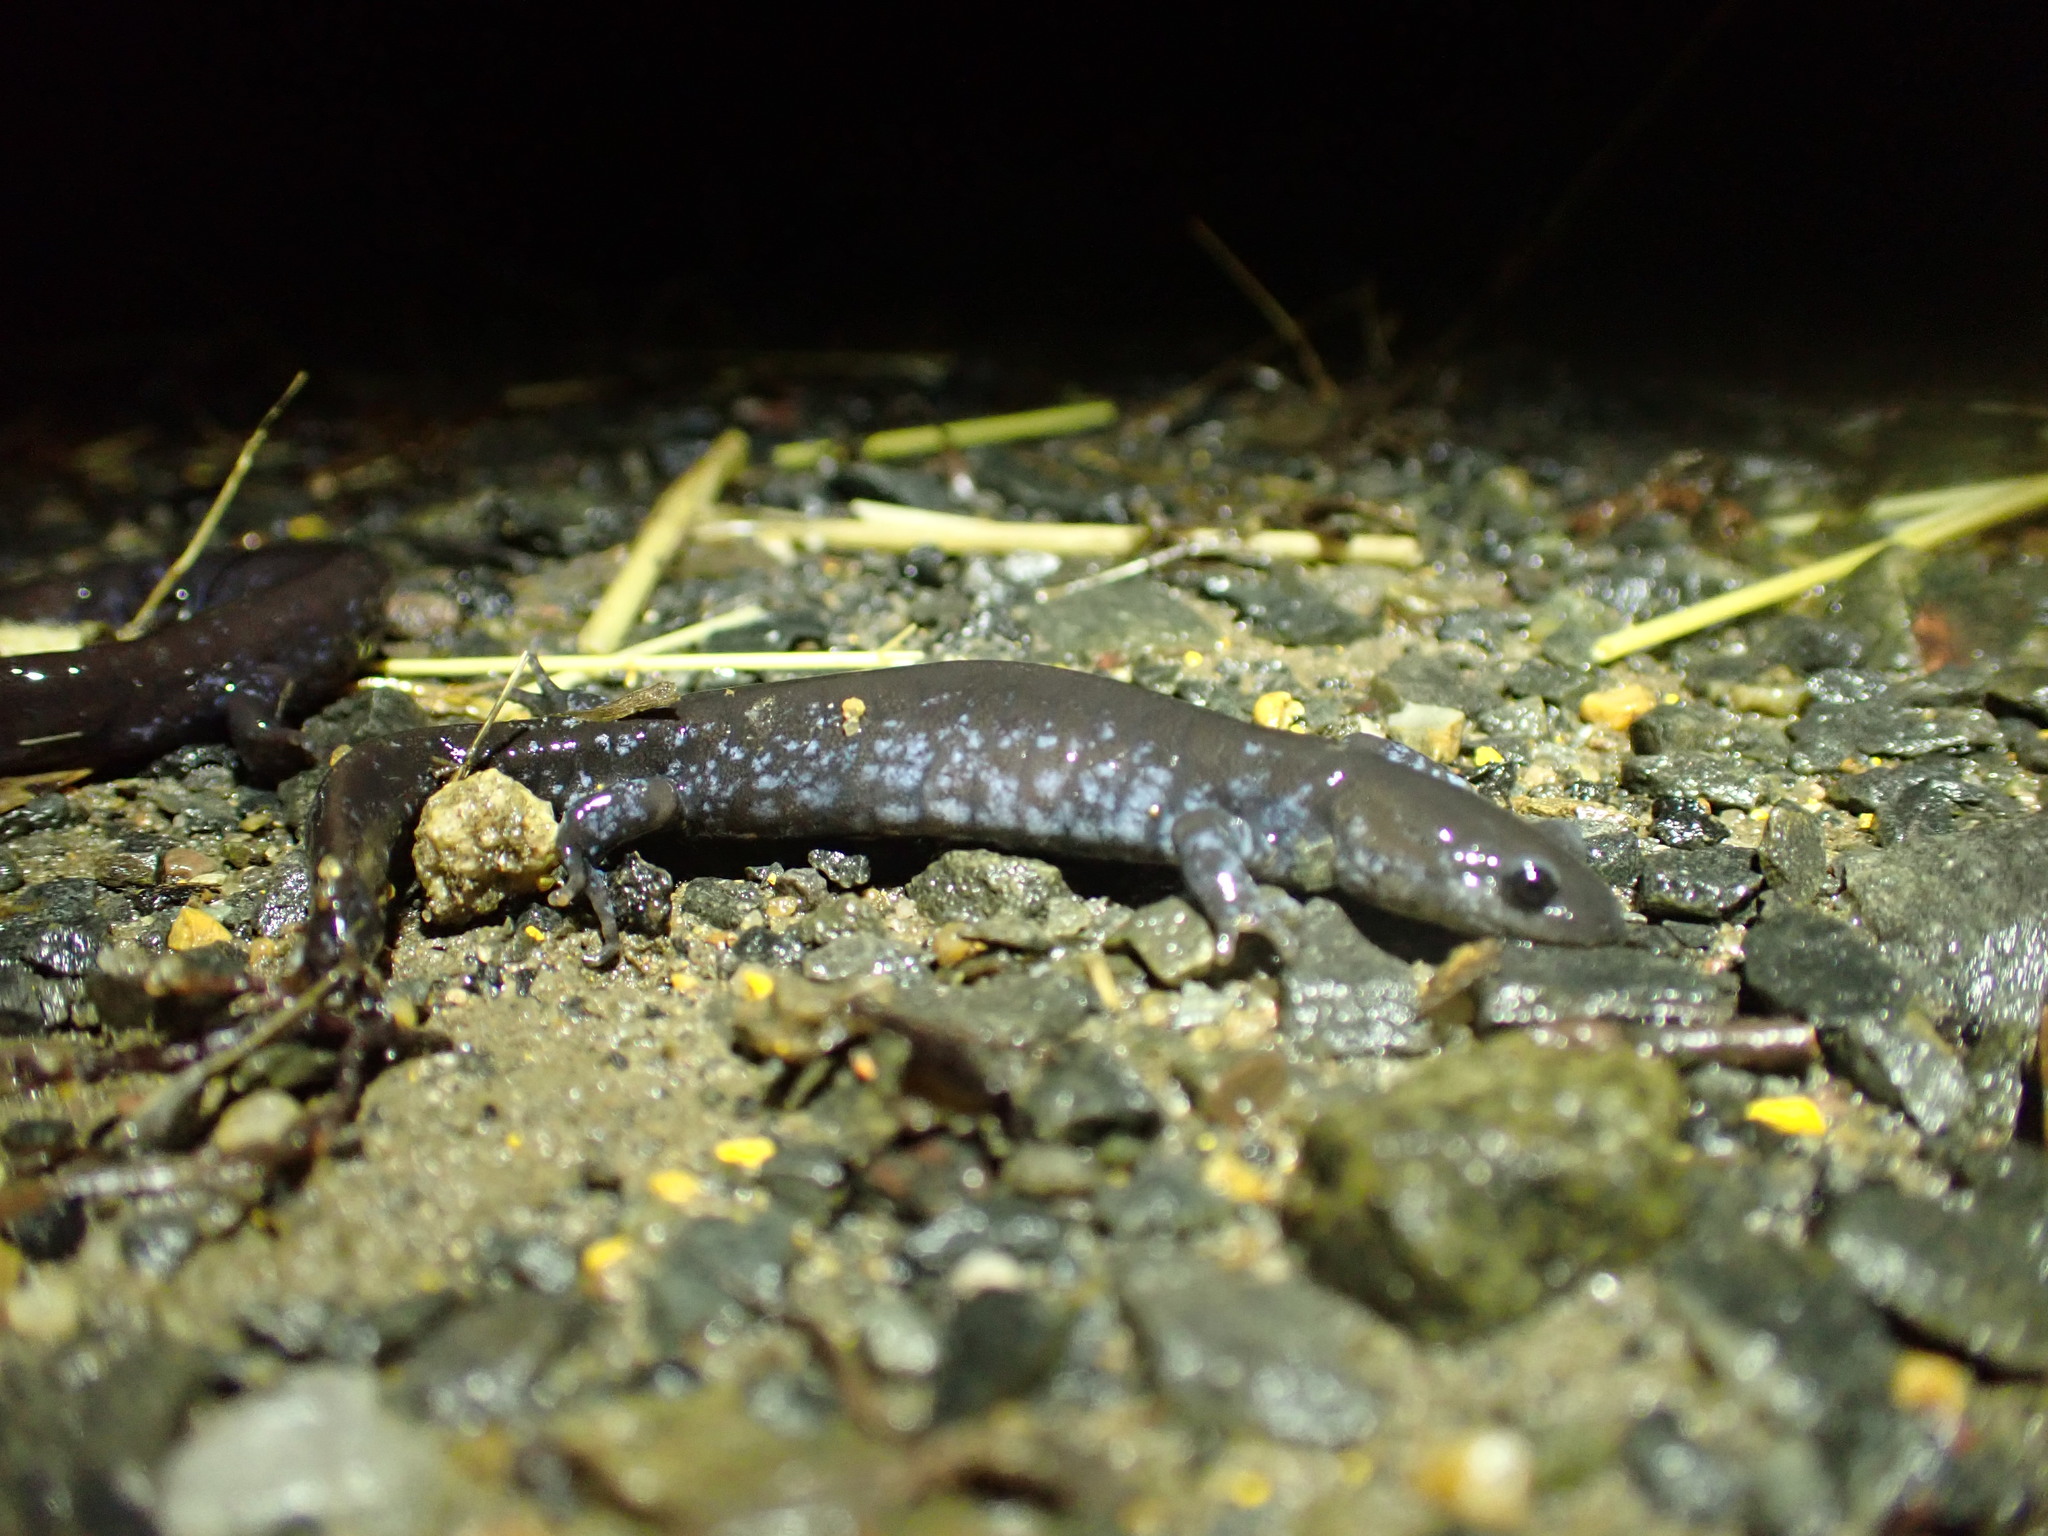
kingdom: Animalia
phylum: Chordata
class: Amphibia
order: Caudata
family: Ambystomatidae
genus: Ambystoma
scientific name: Ambystoma laterale
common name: Blue-spotted salamander
